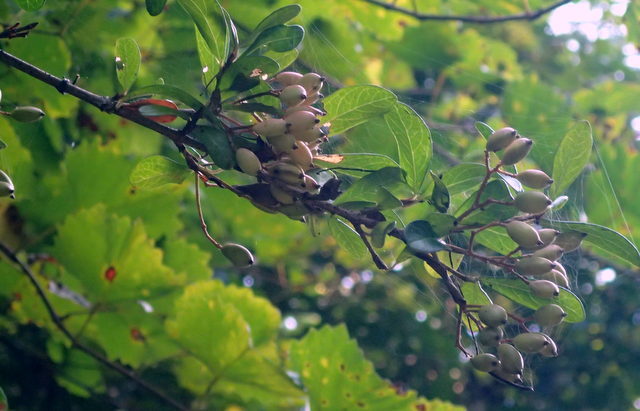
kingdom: Plantae
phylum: Tracheophyta
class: Magnoliopsida
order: Dipsacales
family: Viburnaceae
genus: Viburnum
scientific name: Viburnum obovatum
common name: Walter's viburnum
